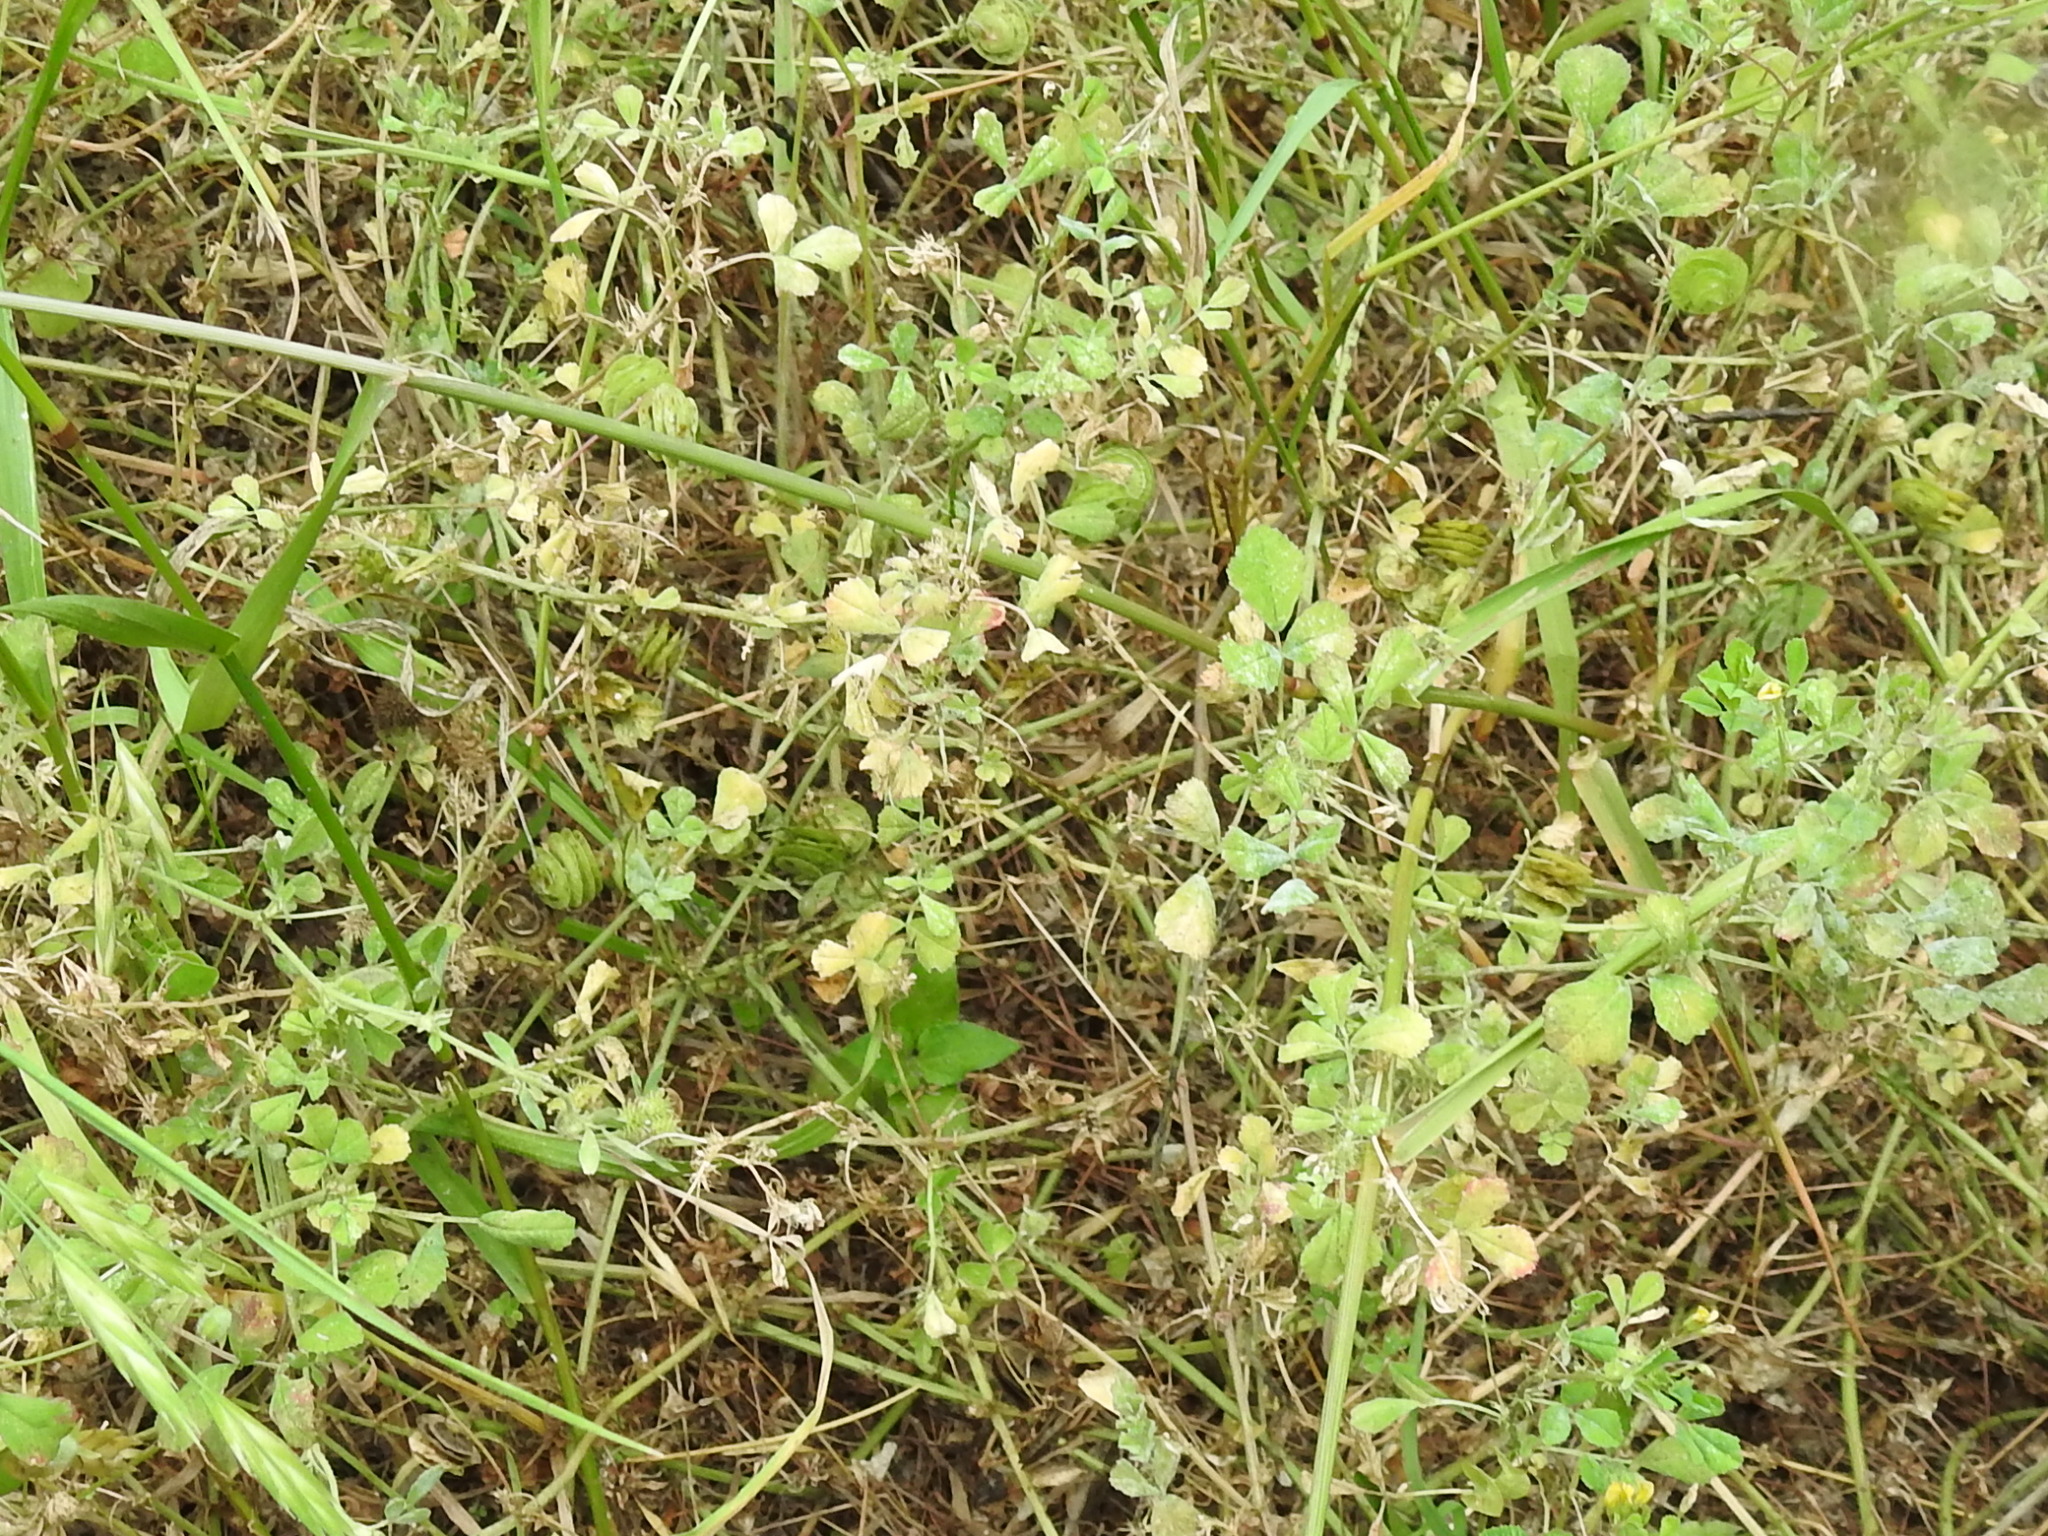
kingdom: Plantae
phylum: Tracheophyta
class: Magnoliopsida
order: Fabales
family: Fabaceae
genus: Medicago
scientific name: Medicago orbicularis
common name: Button medick
